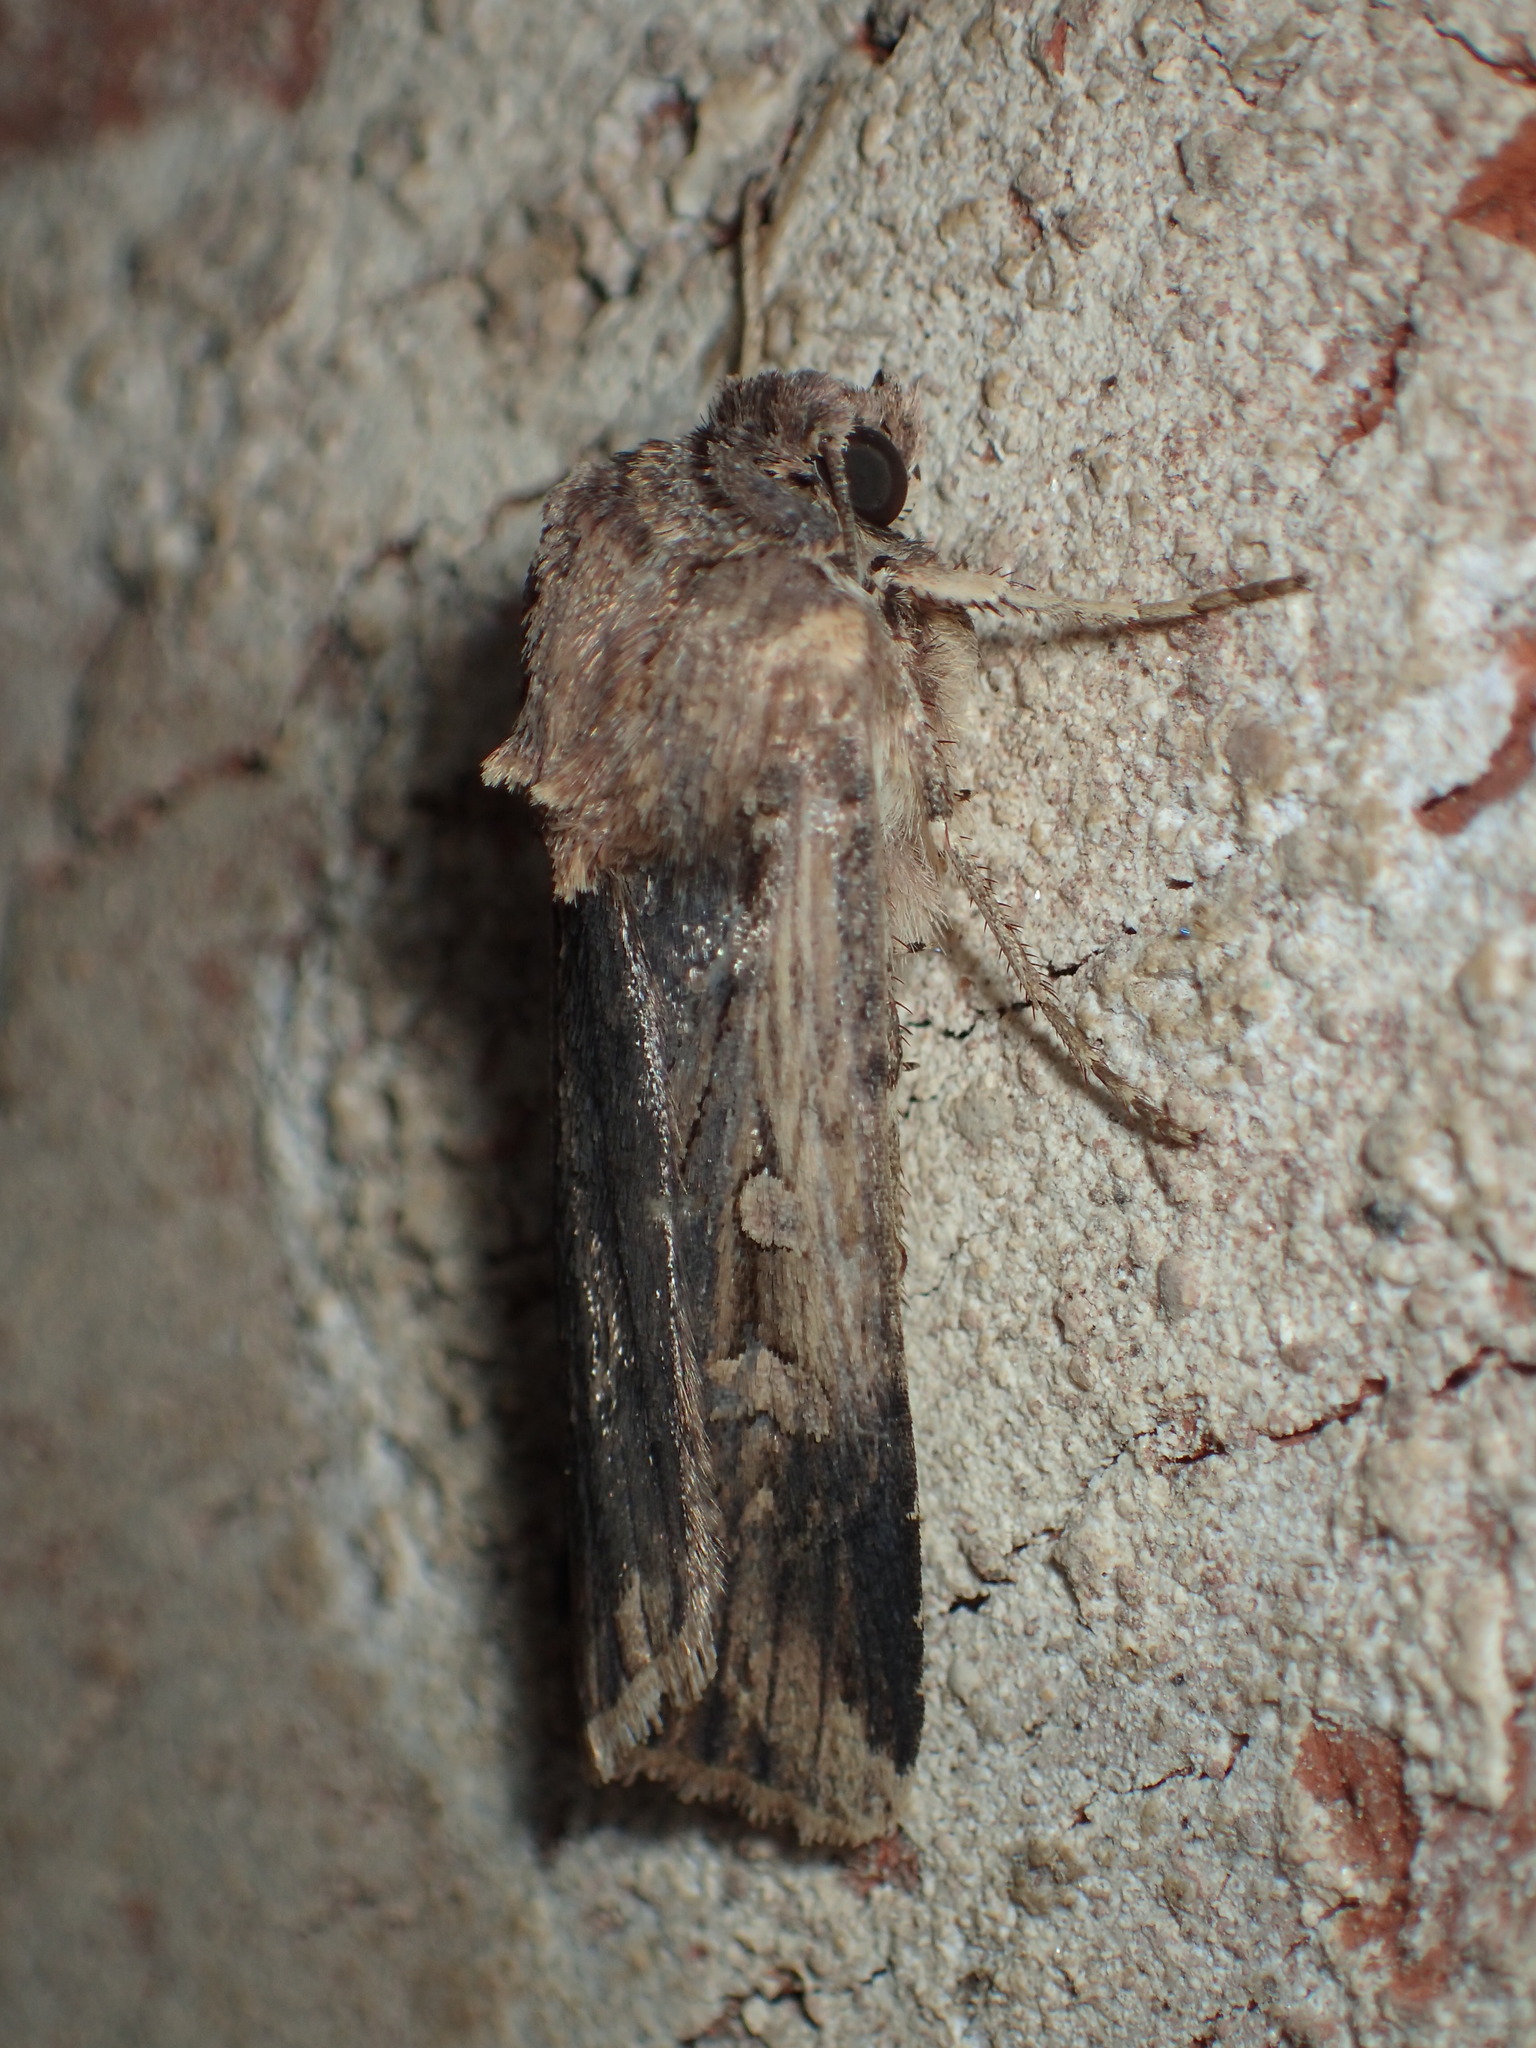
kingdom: Animalia
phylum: Arthropoda
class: Insecta
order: Lepidoptera
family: Noctuidae
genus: Feltia
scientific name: Feltia subterranea
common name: Granulate cutworm
